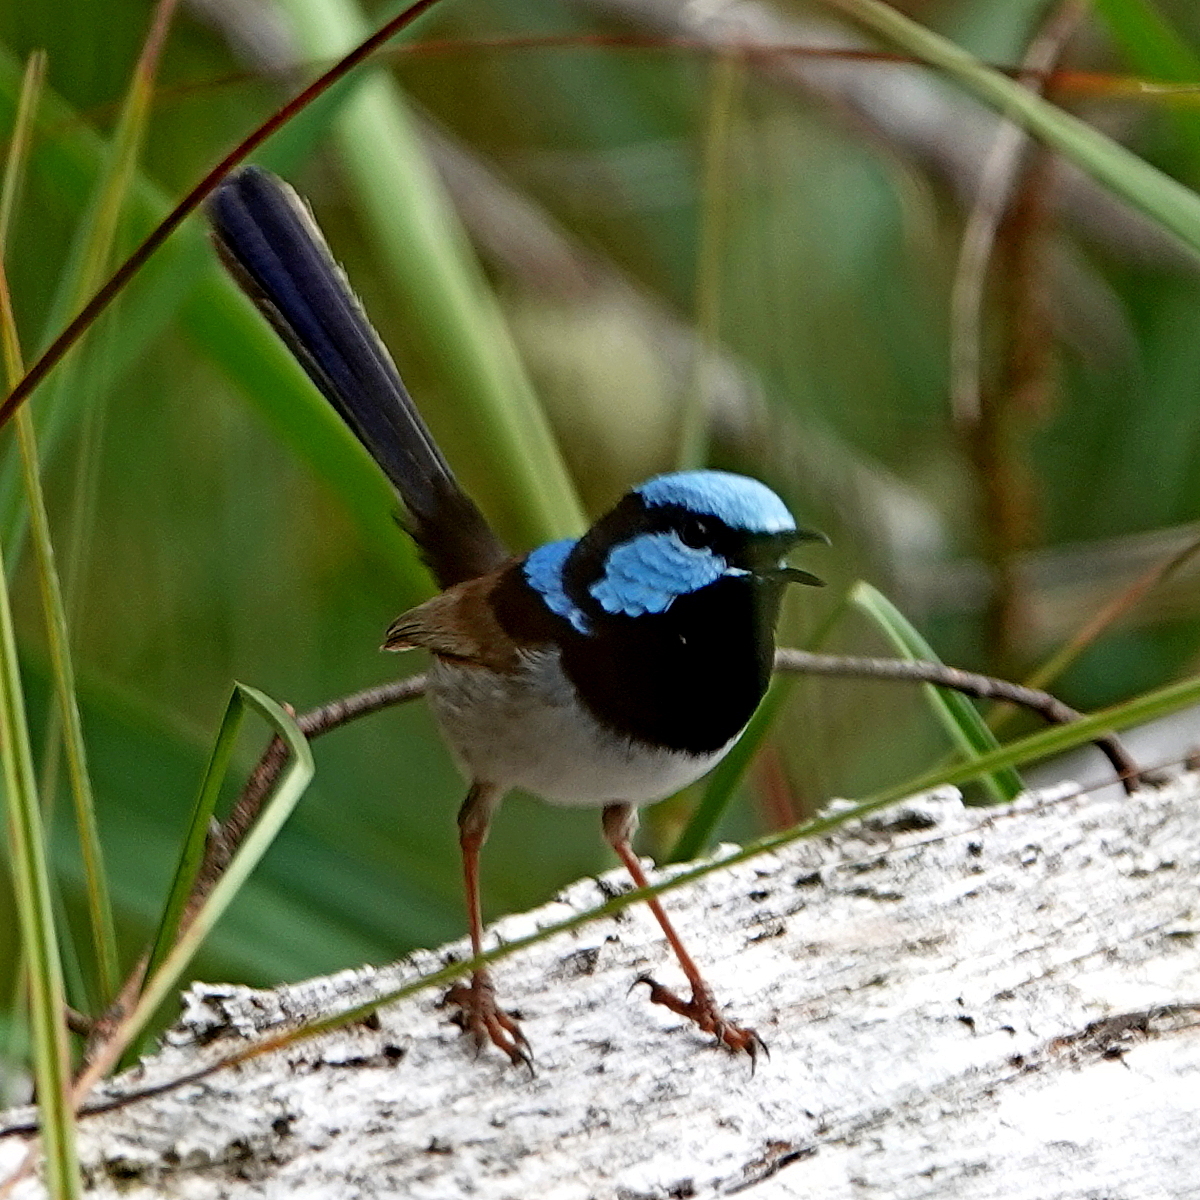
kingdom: Animalia
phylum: Chordata
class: Aves
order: Passeriformes
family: Maluridae
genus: Malurus
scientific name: Malurus cyaneus
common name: Superb fairywren
